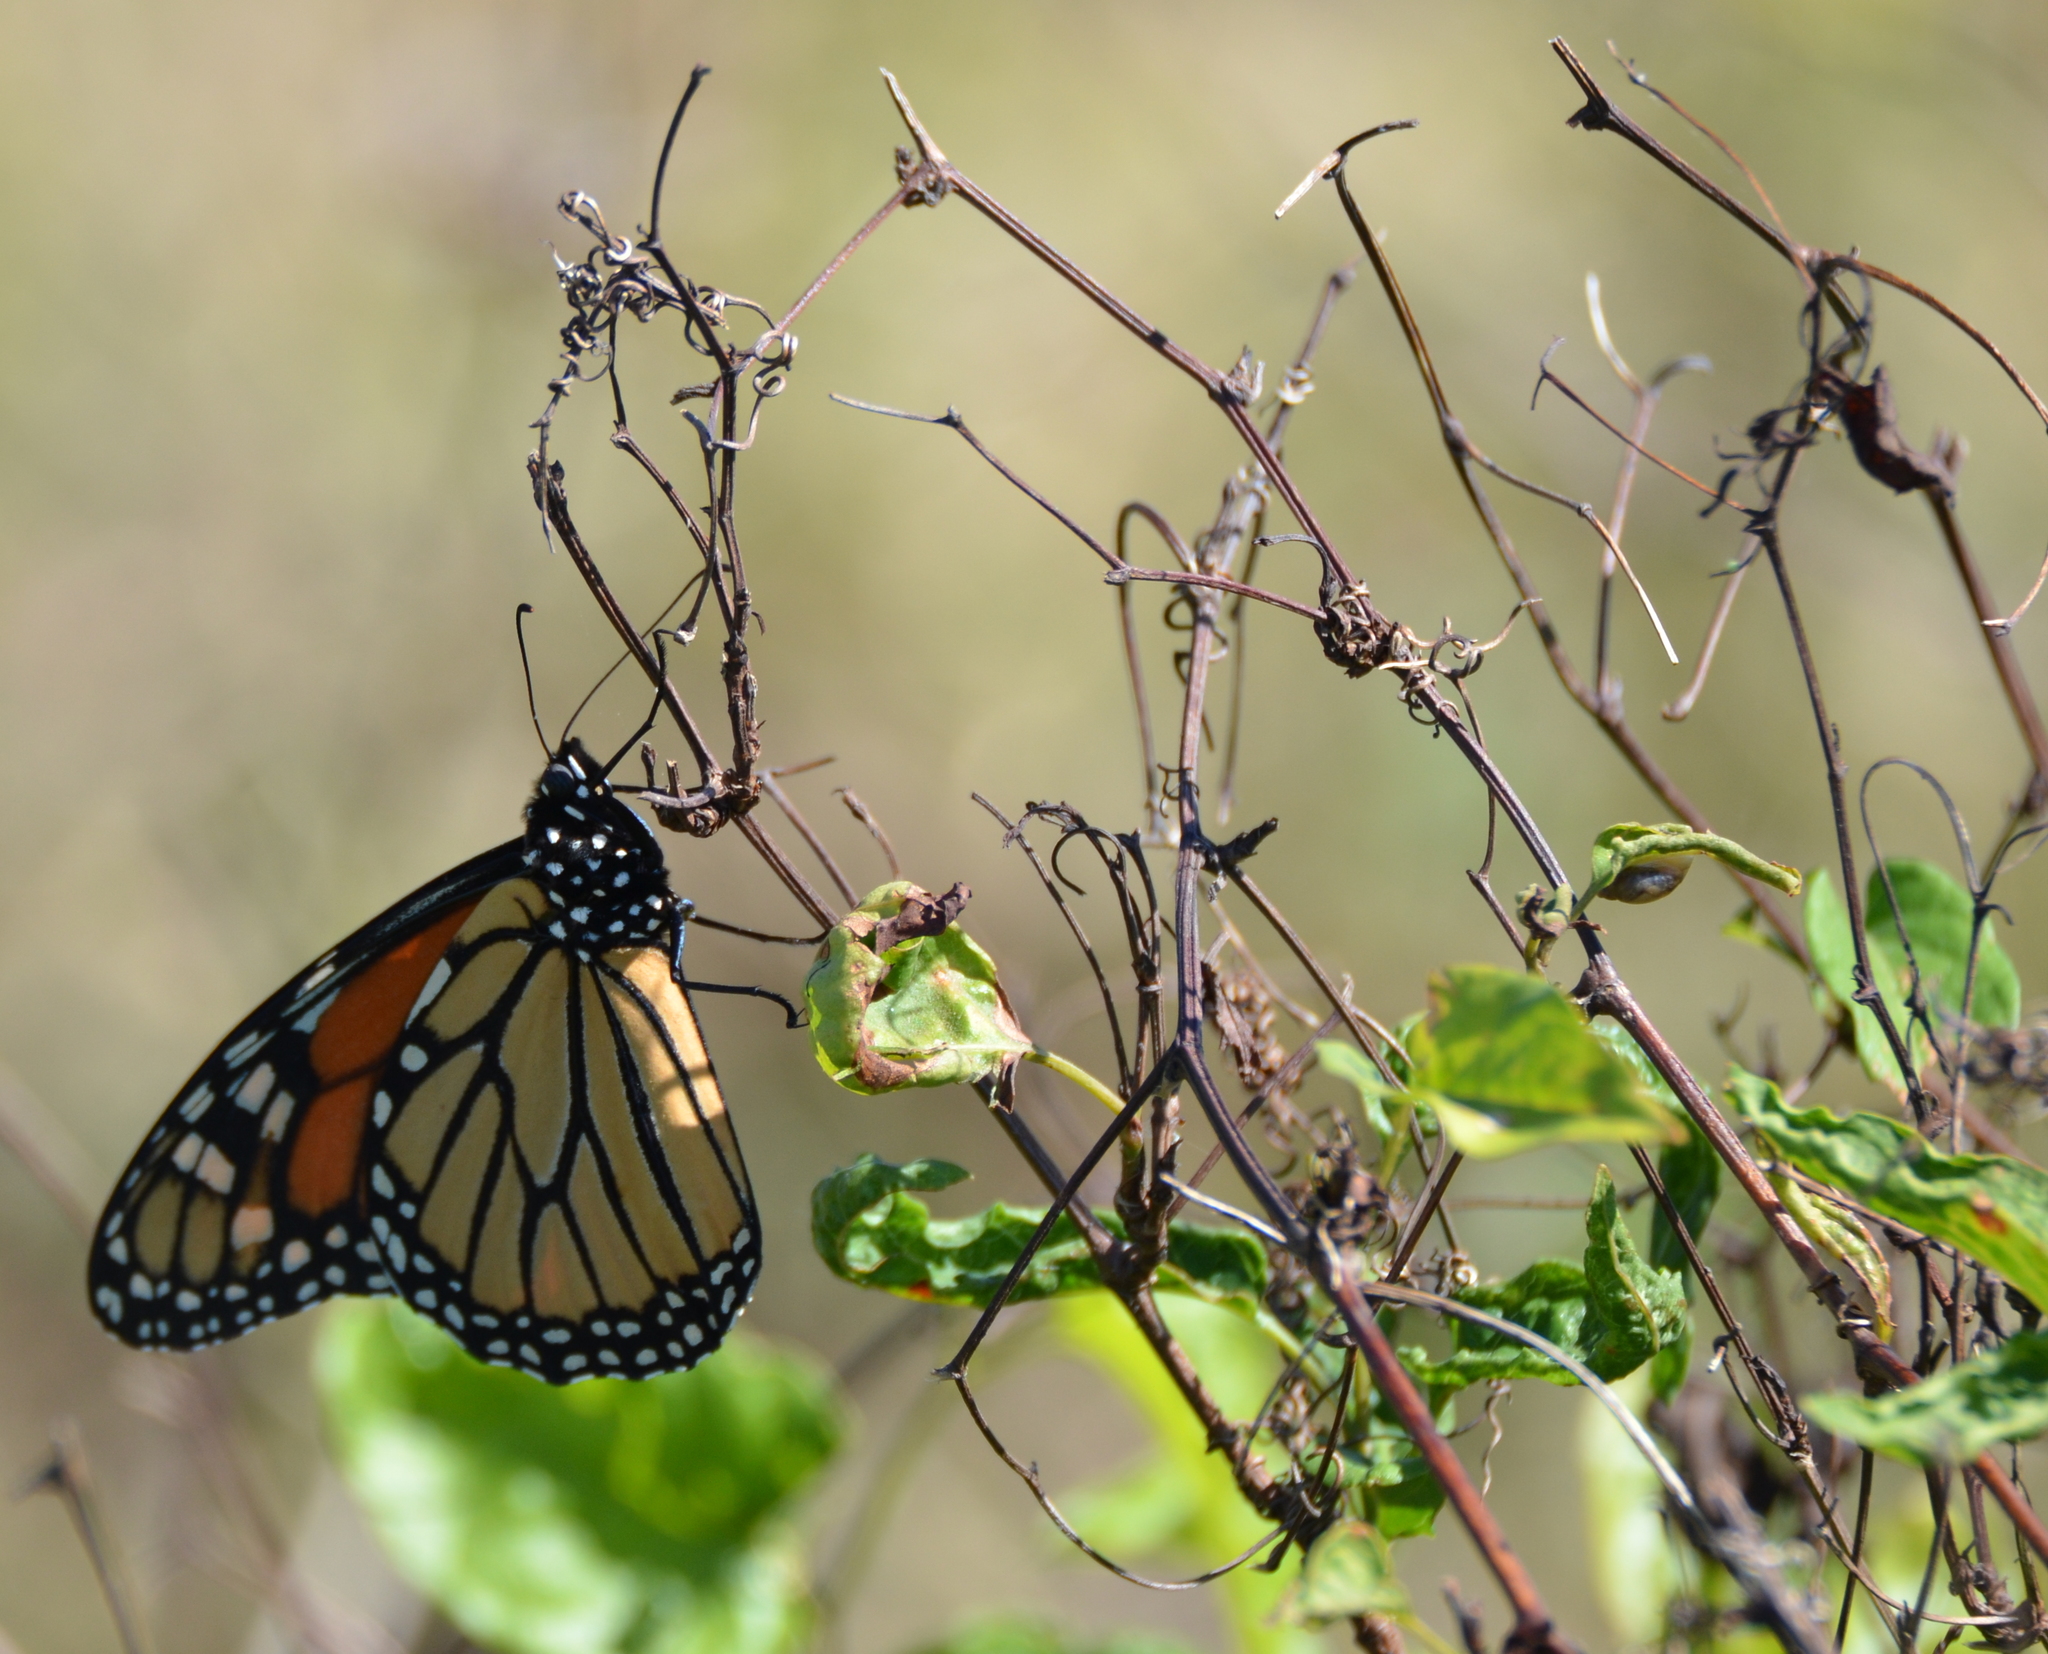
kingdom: Animalia
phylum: Arthropoda
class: Insecta
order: Lepidoptera
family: Nymphalidae
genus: Danaus
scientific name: Danaus plexippus
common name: Monarch
